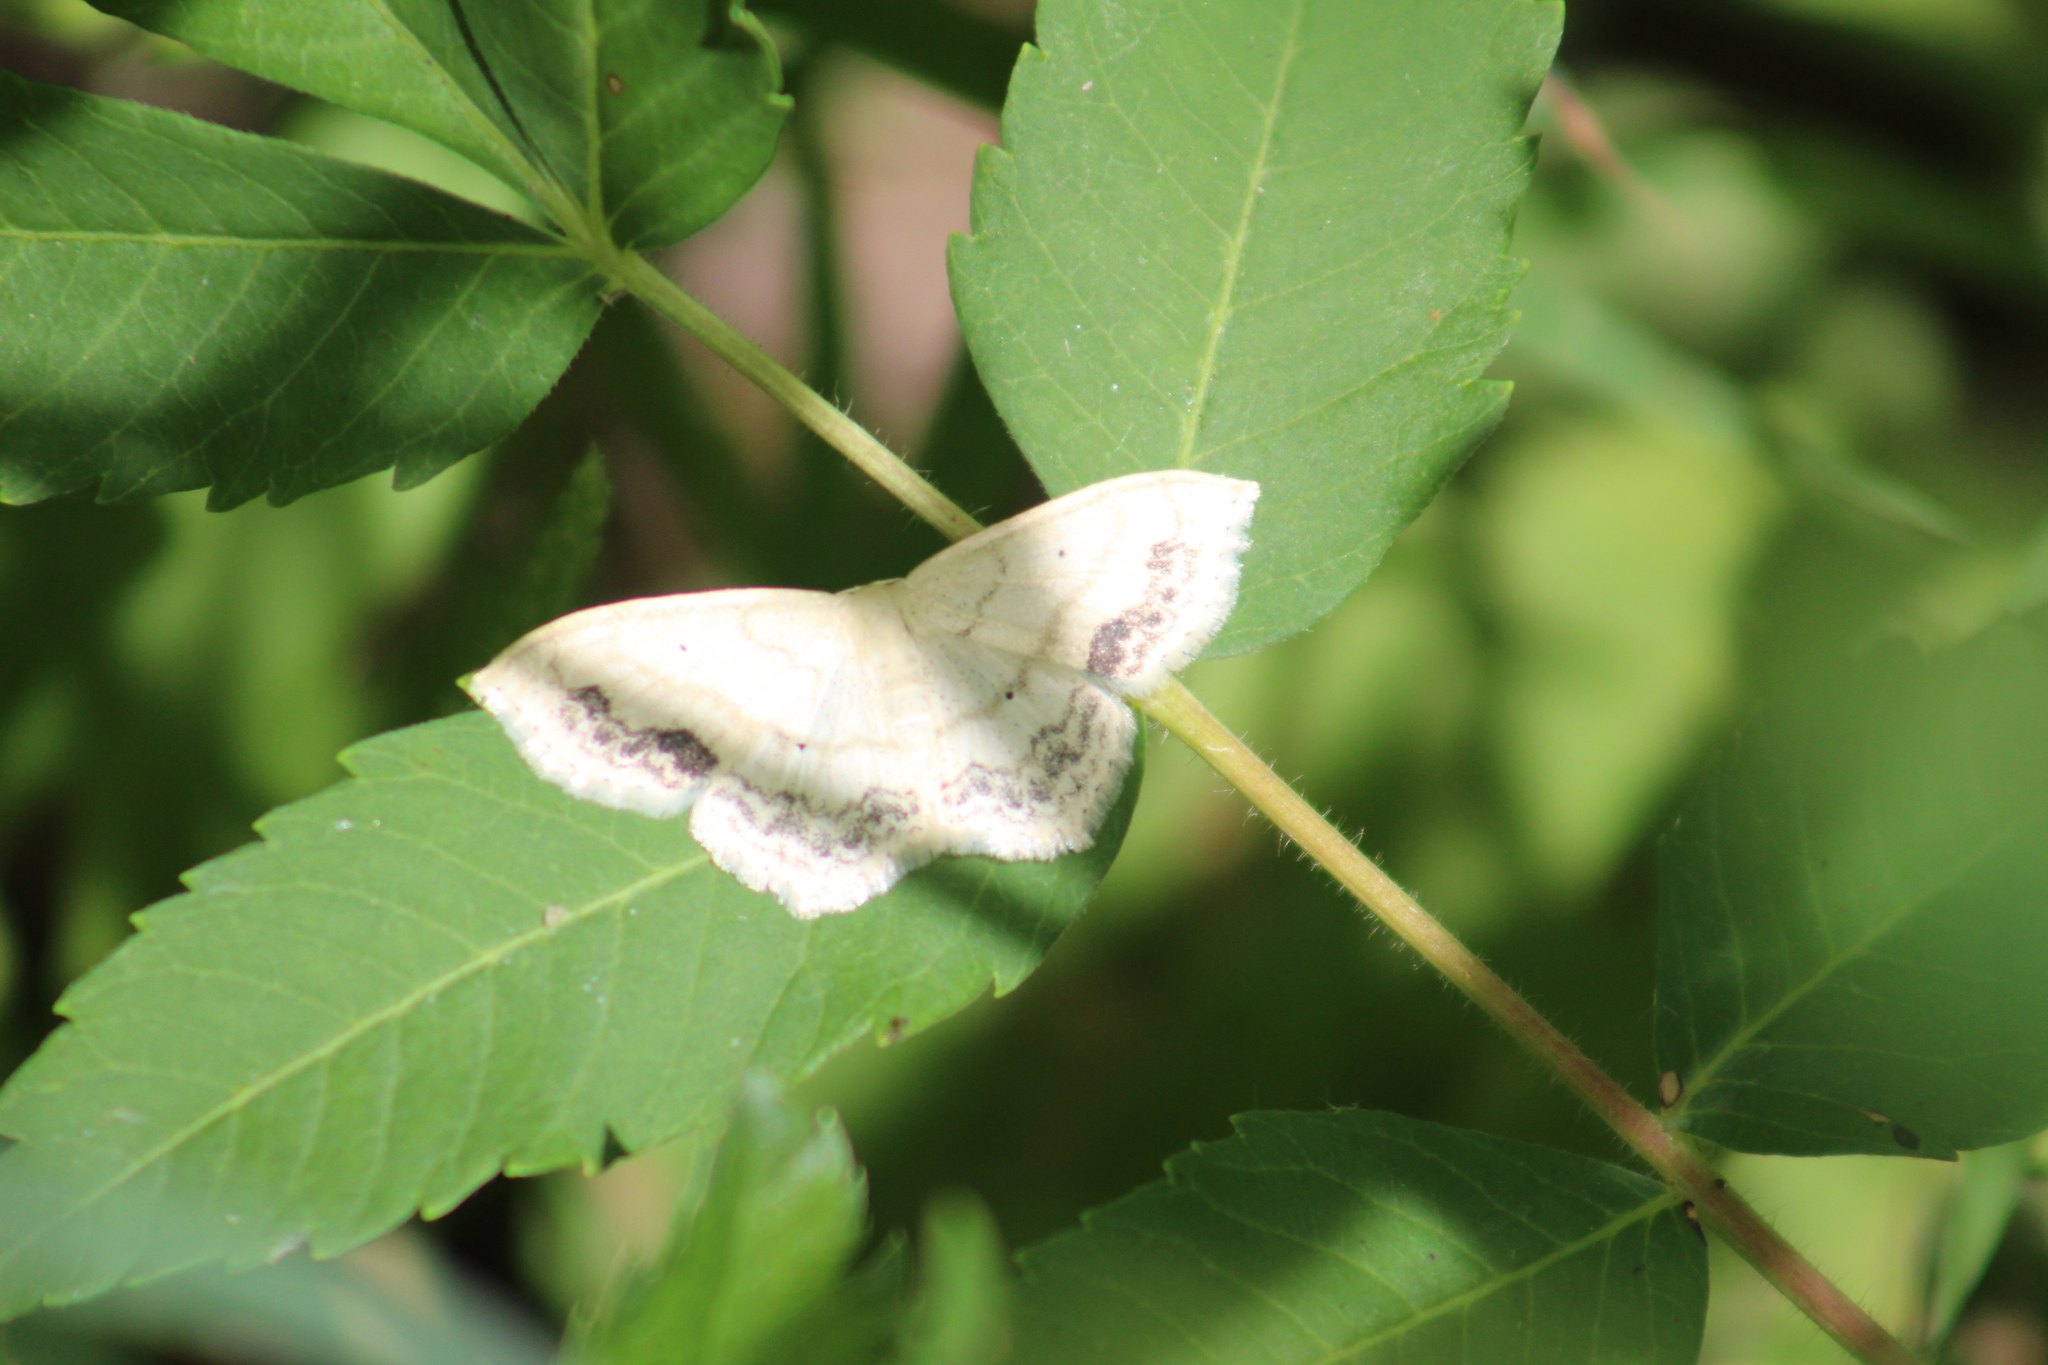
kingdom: Animalia
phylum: Arthropoda
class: Insecta
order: Lepidoptera
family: Geometridae
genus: Scopula
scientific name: Scopula limboundata
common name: Large lace border
